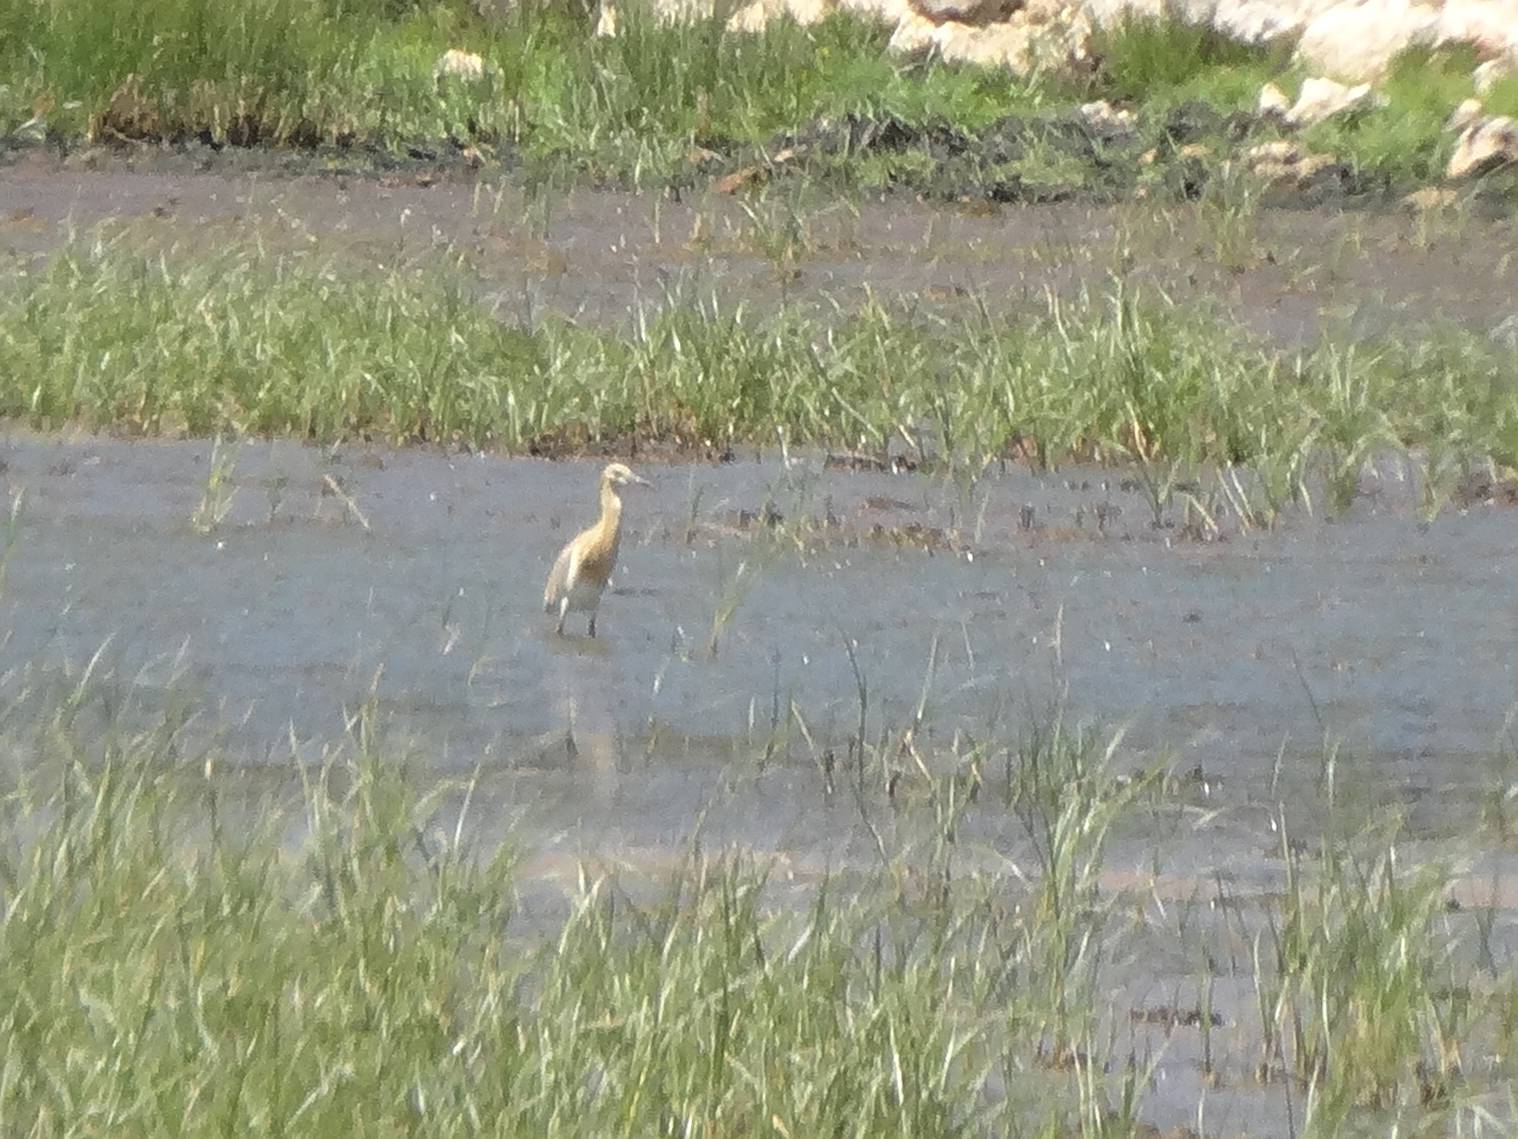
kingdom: Animalia
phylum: Chordata
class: Aves
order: Pelecaniformes
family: Ardeidae
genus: Ardeola
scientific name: Ardeola ralloides
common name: Squacco heron
